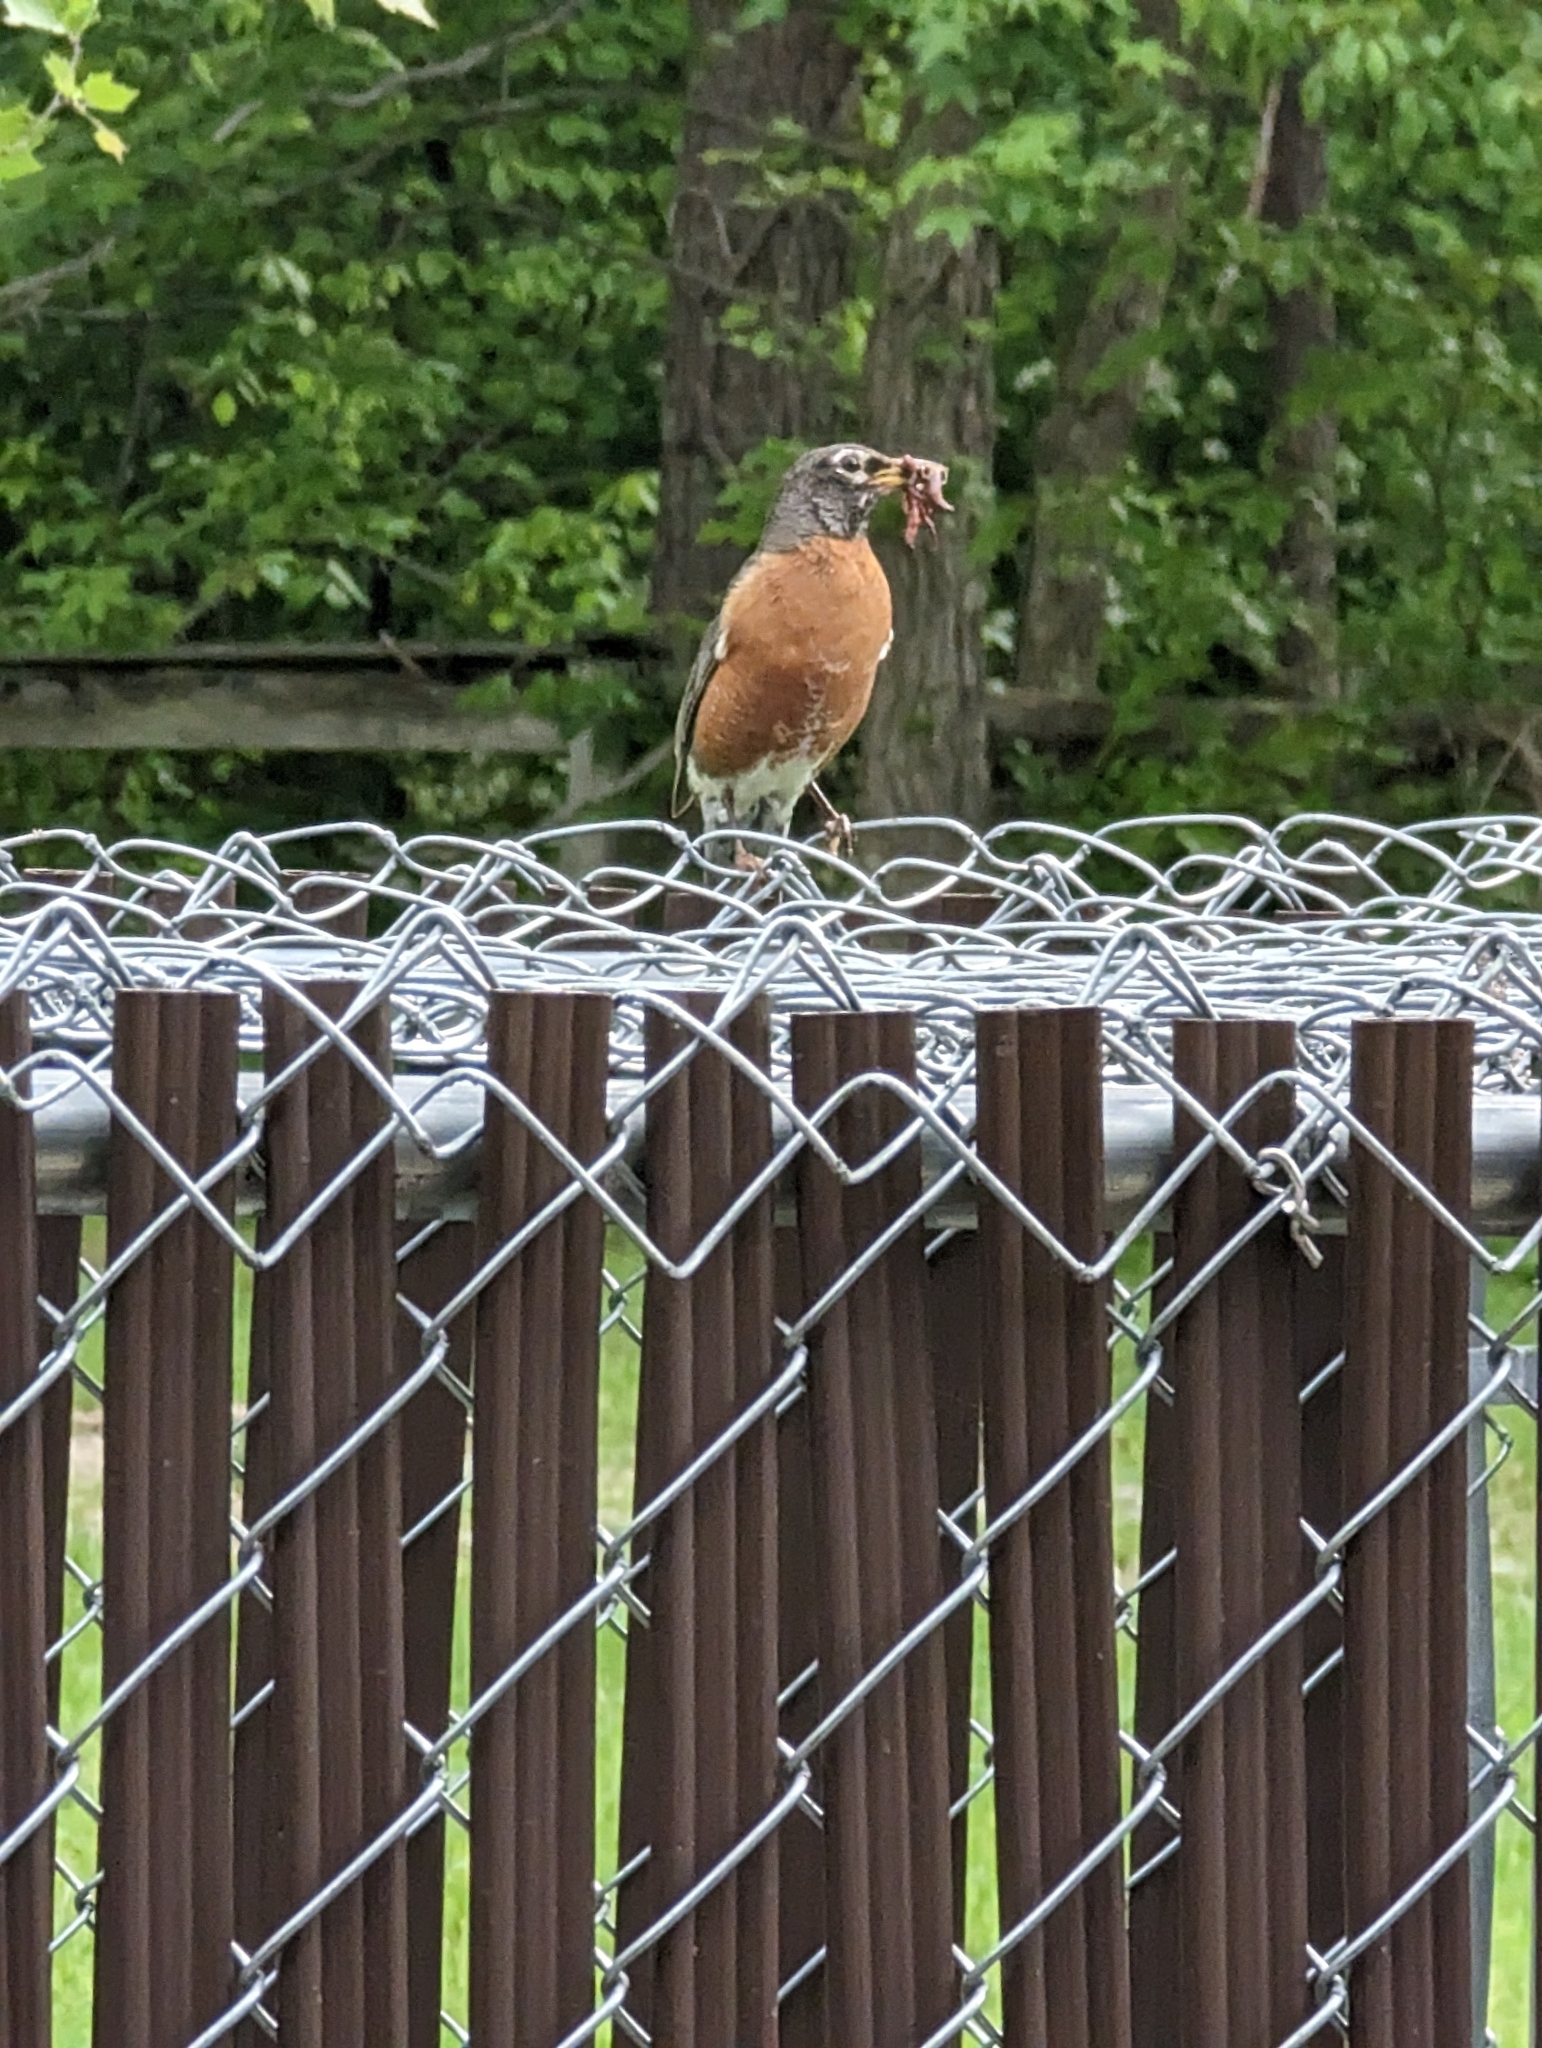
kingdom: Animalia
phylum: Chordata
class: Aves
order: Passeriformes
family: Turdidae
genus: Turdus
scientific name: Turdus migratorius
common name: American robin
